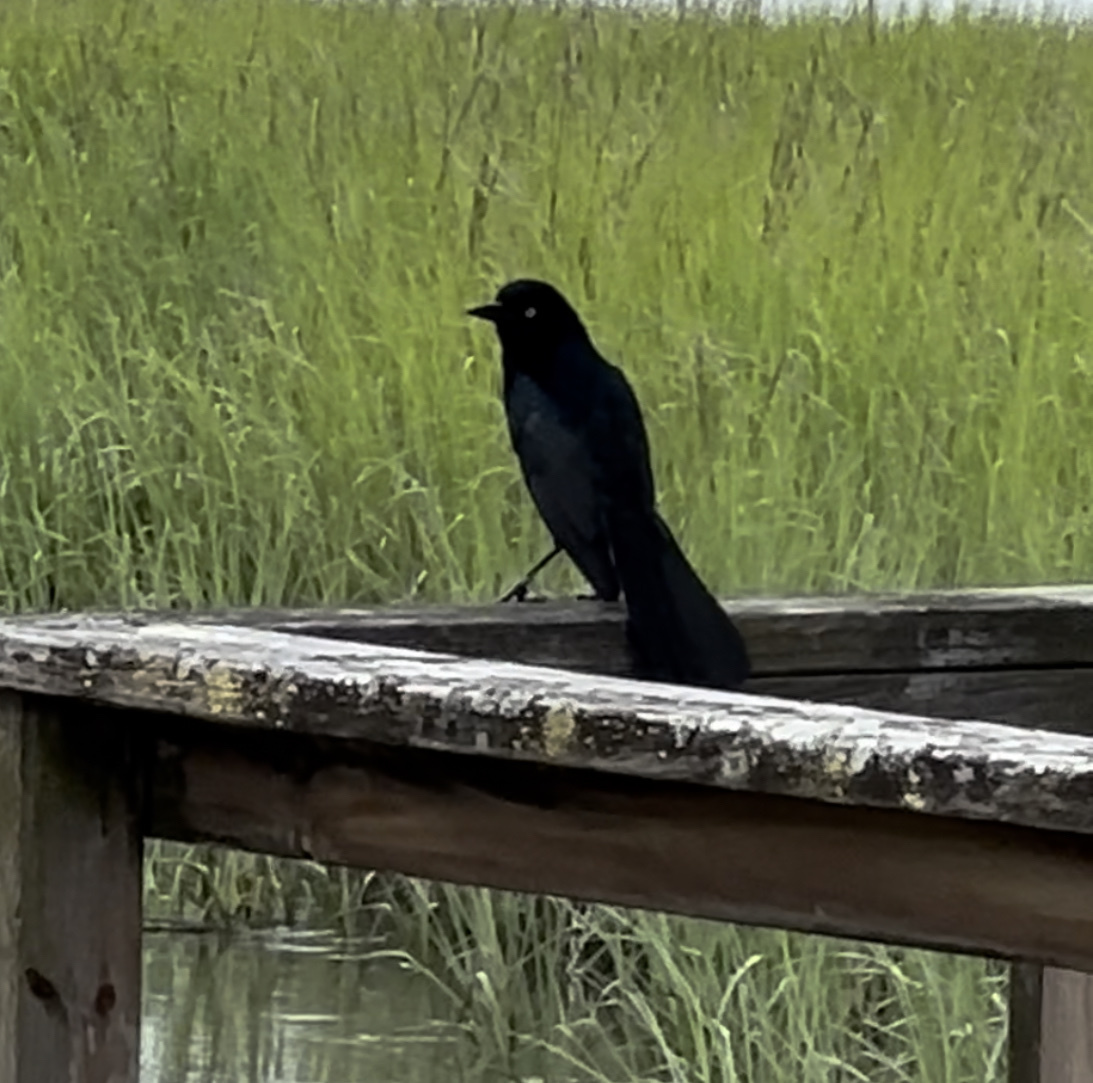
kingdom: Animalia
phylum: Chordata
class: Aves
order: Passeriformes
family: Icteridae
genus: Quiscalus
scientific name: Quiscalus major
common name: Boat-tailed grackle
